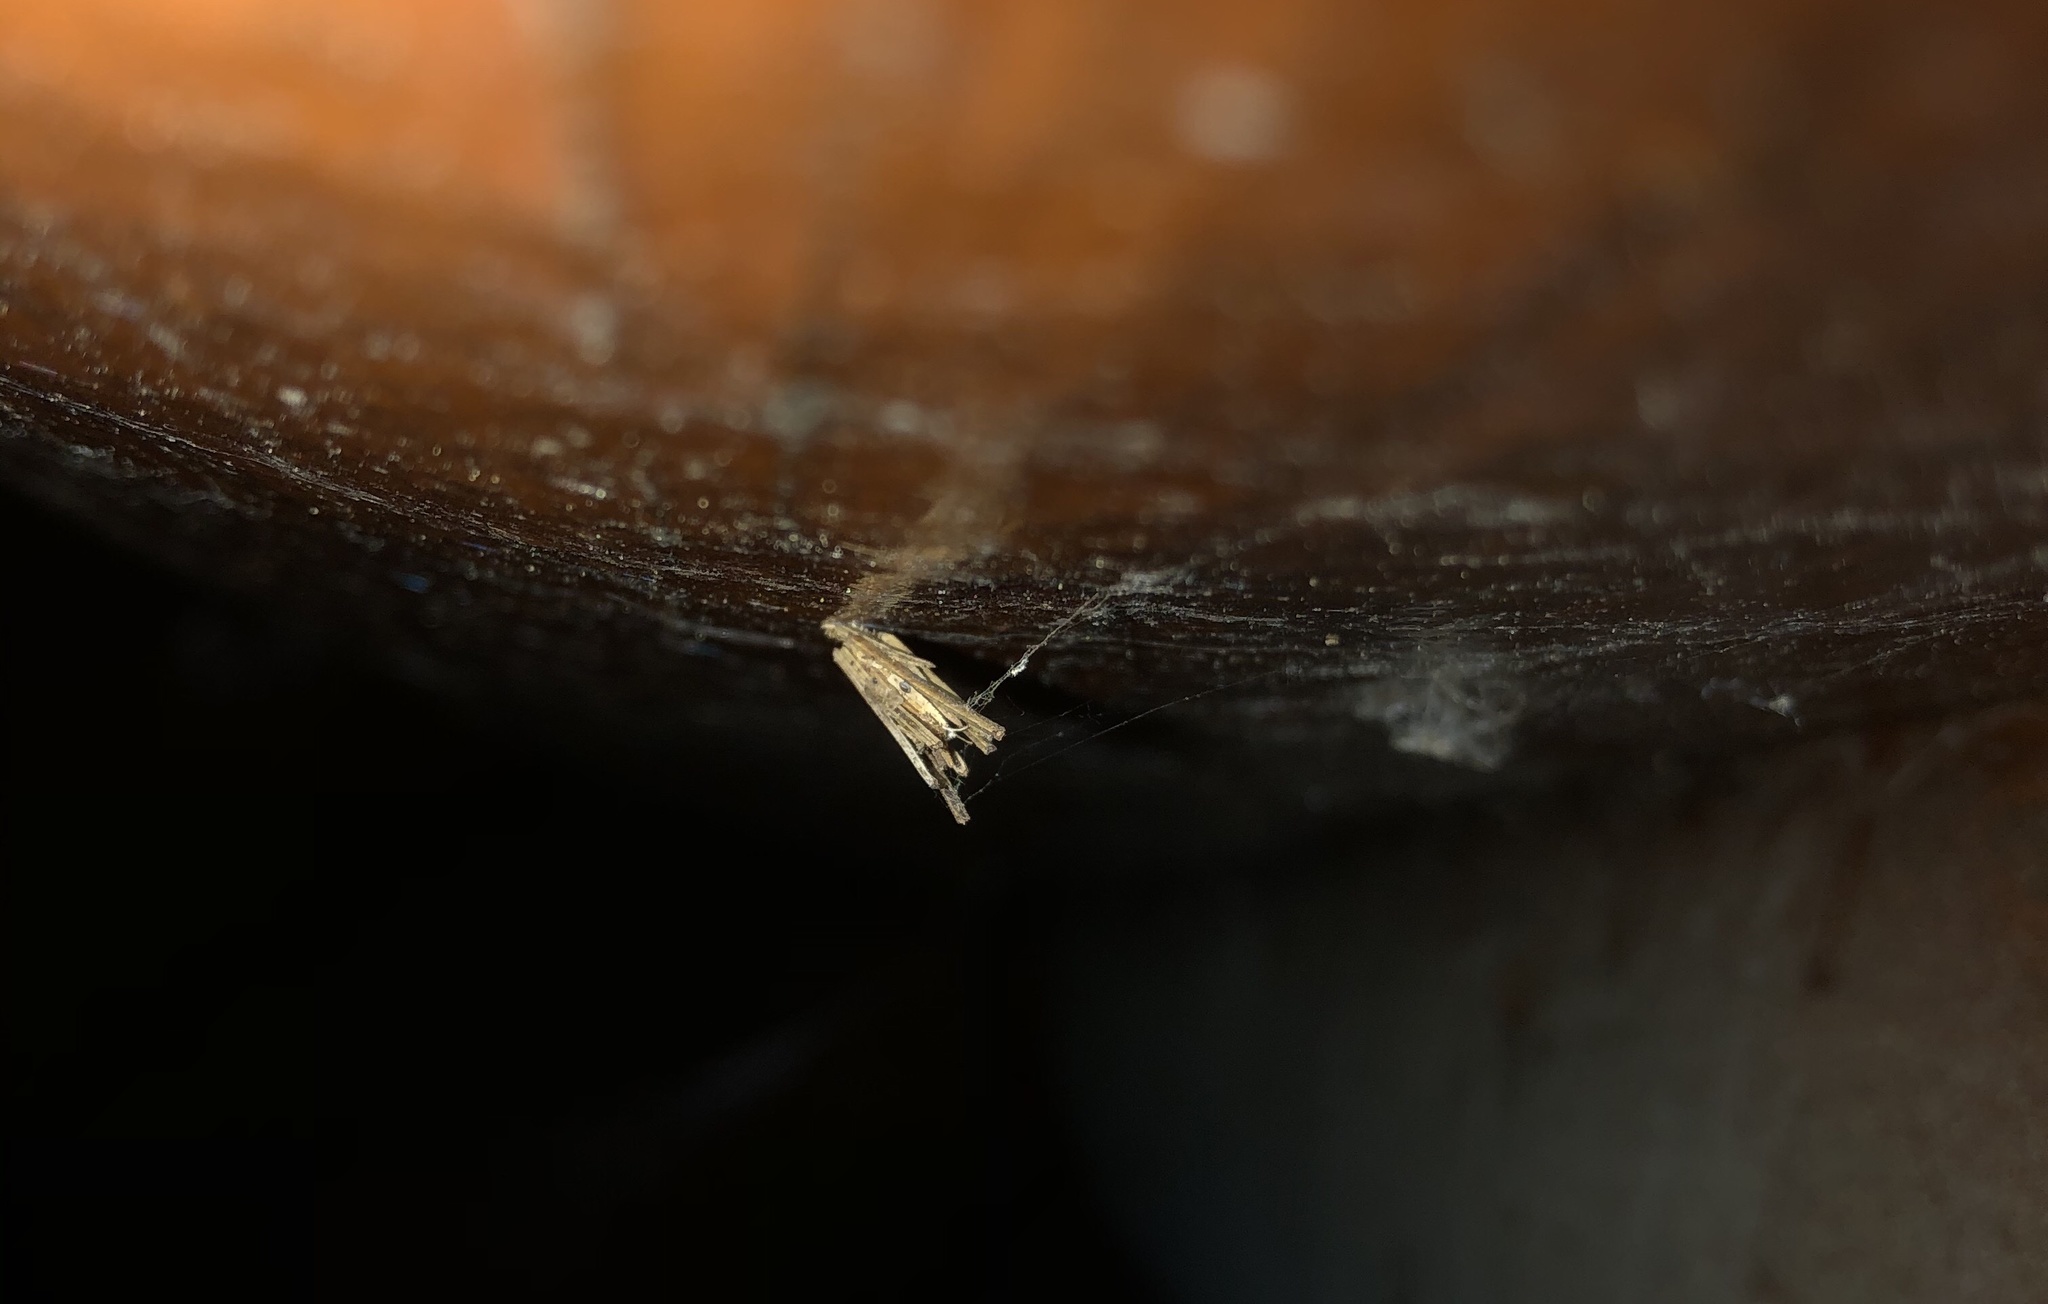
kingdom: Animalia
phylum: Arthropoda
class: Insecta
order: Lepidoptera
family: Psychidae
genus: Psyche
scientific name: Psyche casta
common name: Common sweep
